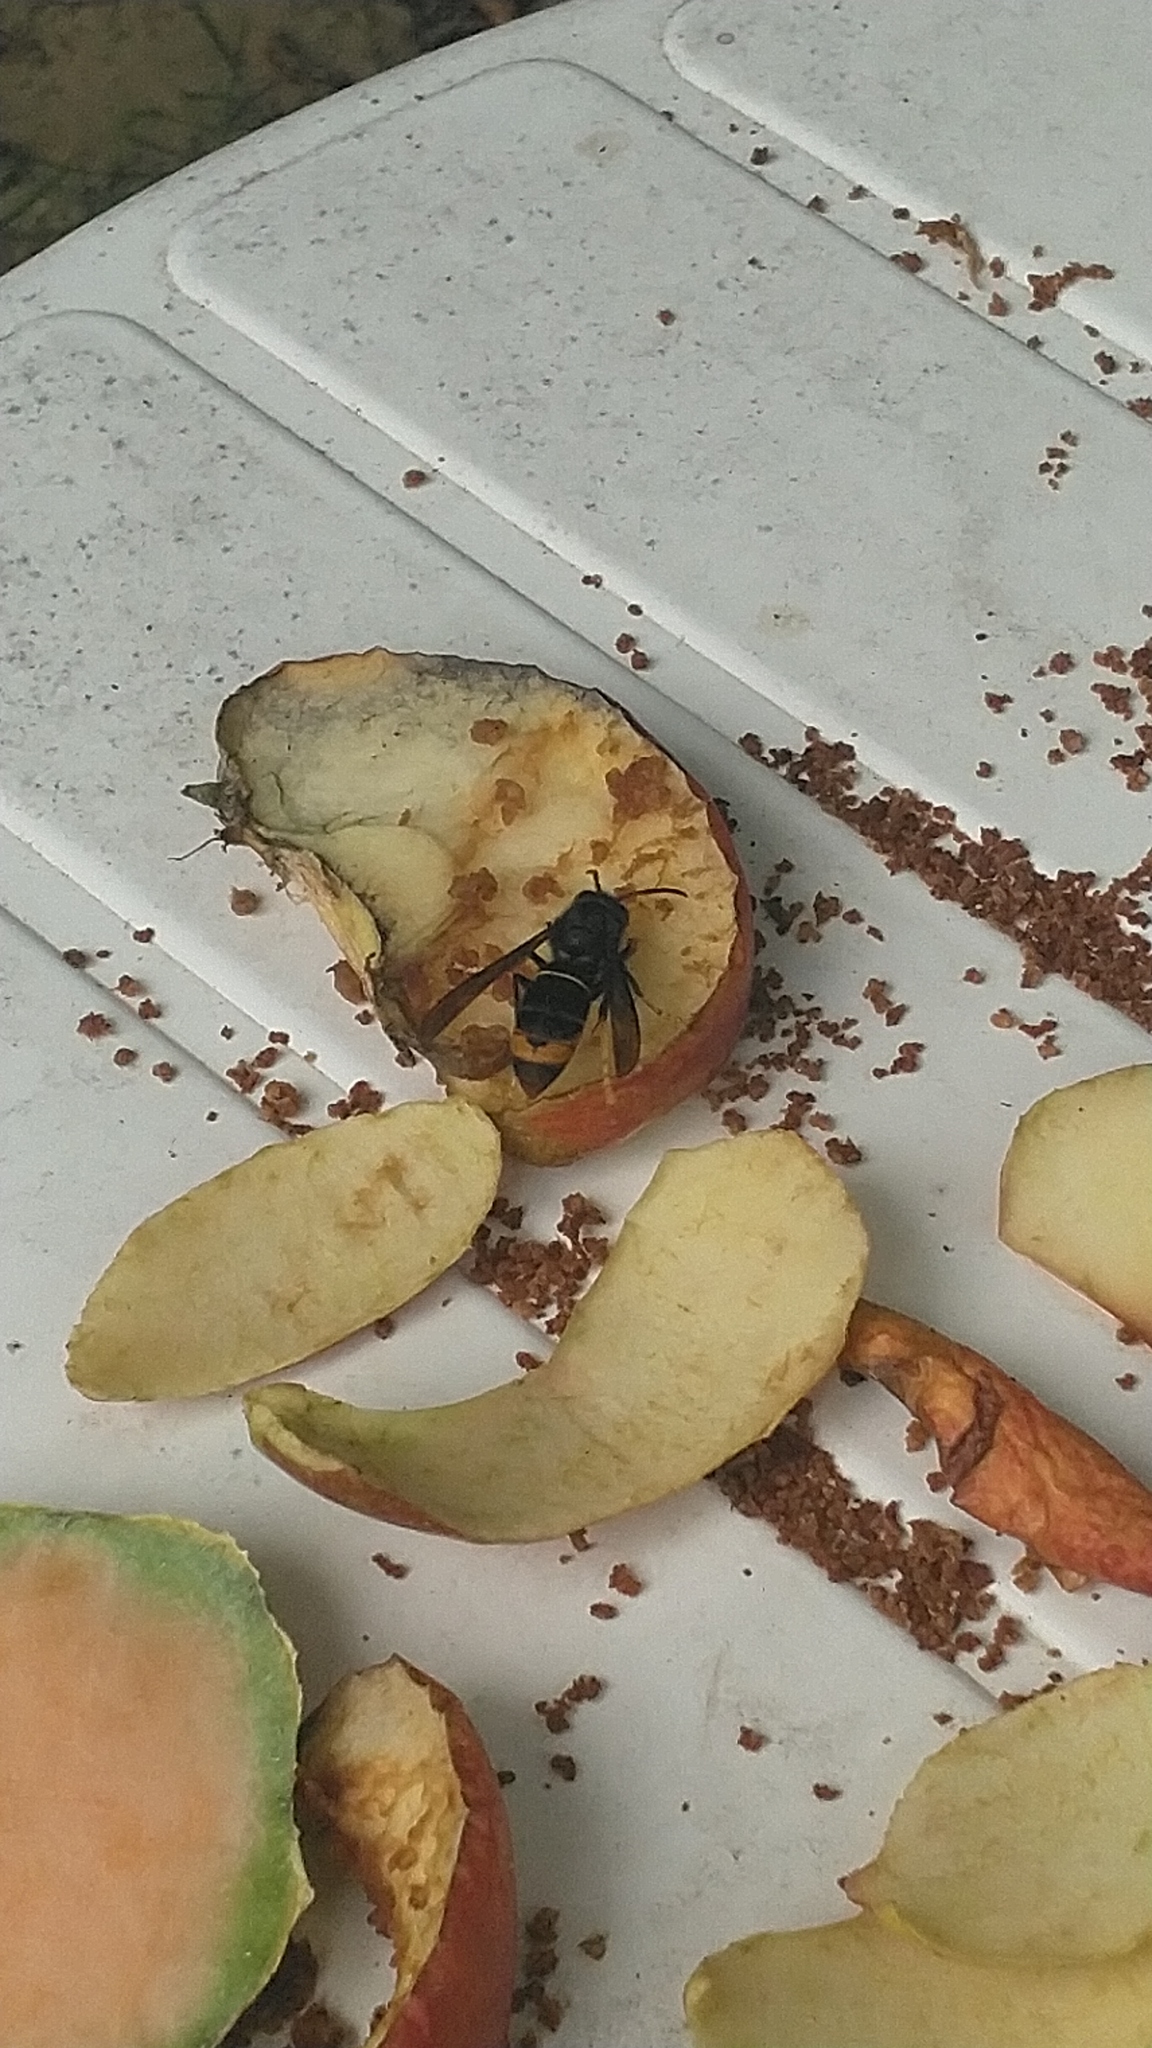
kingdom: Animalia
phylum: Arthropoda
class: Insecta
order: Hymenoptera
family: Vespidae
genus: Vespa
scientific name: Vespa velutina
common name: Asian hornet
